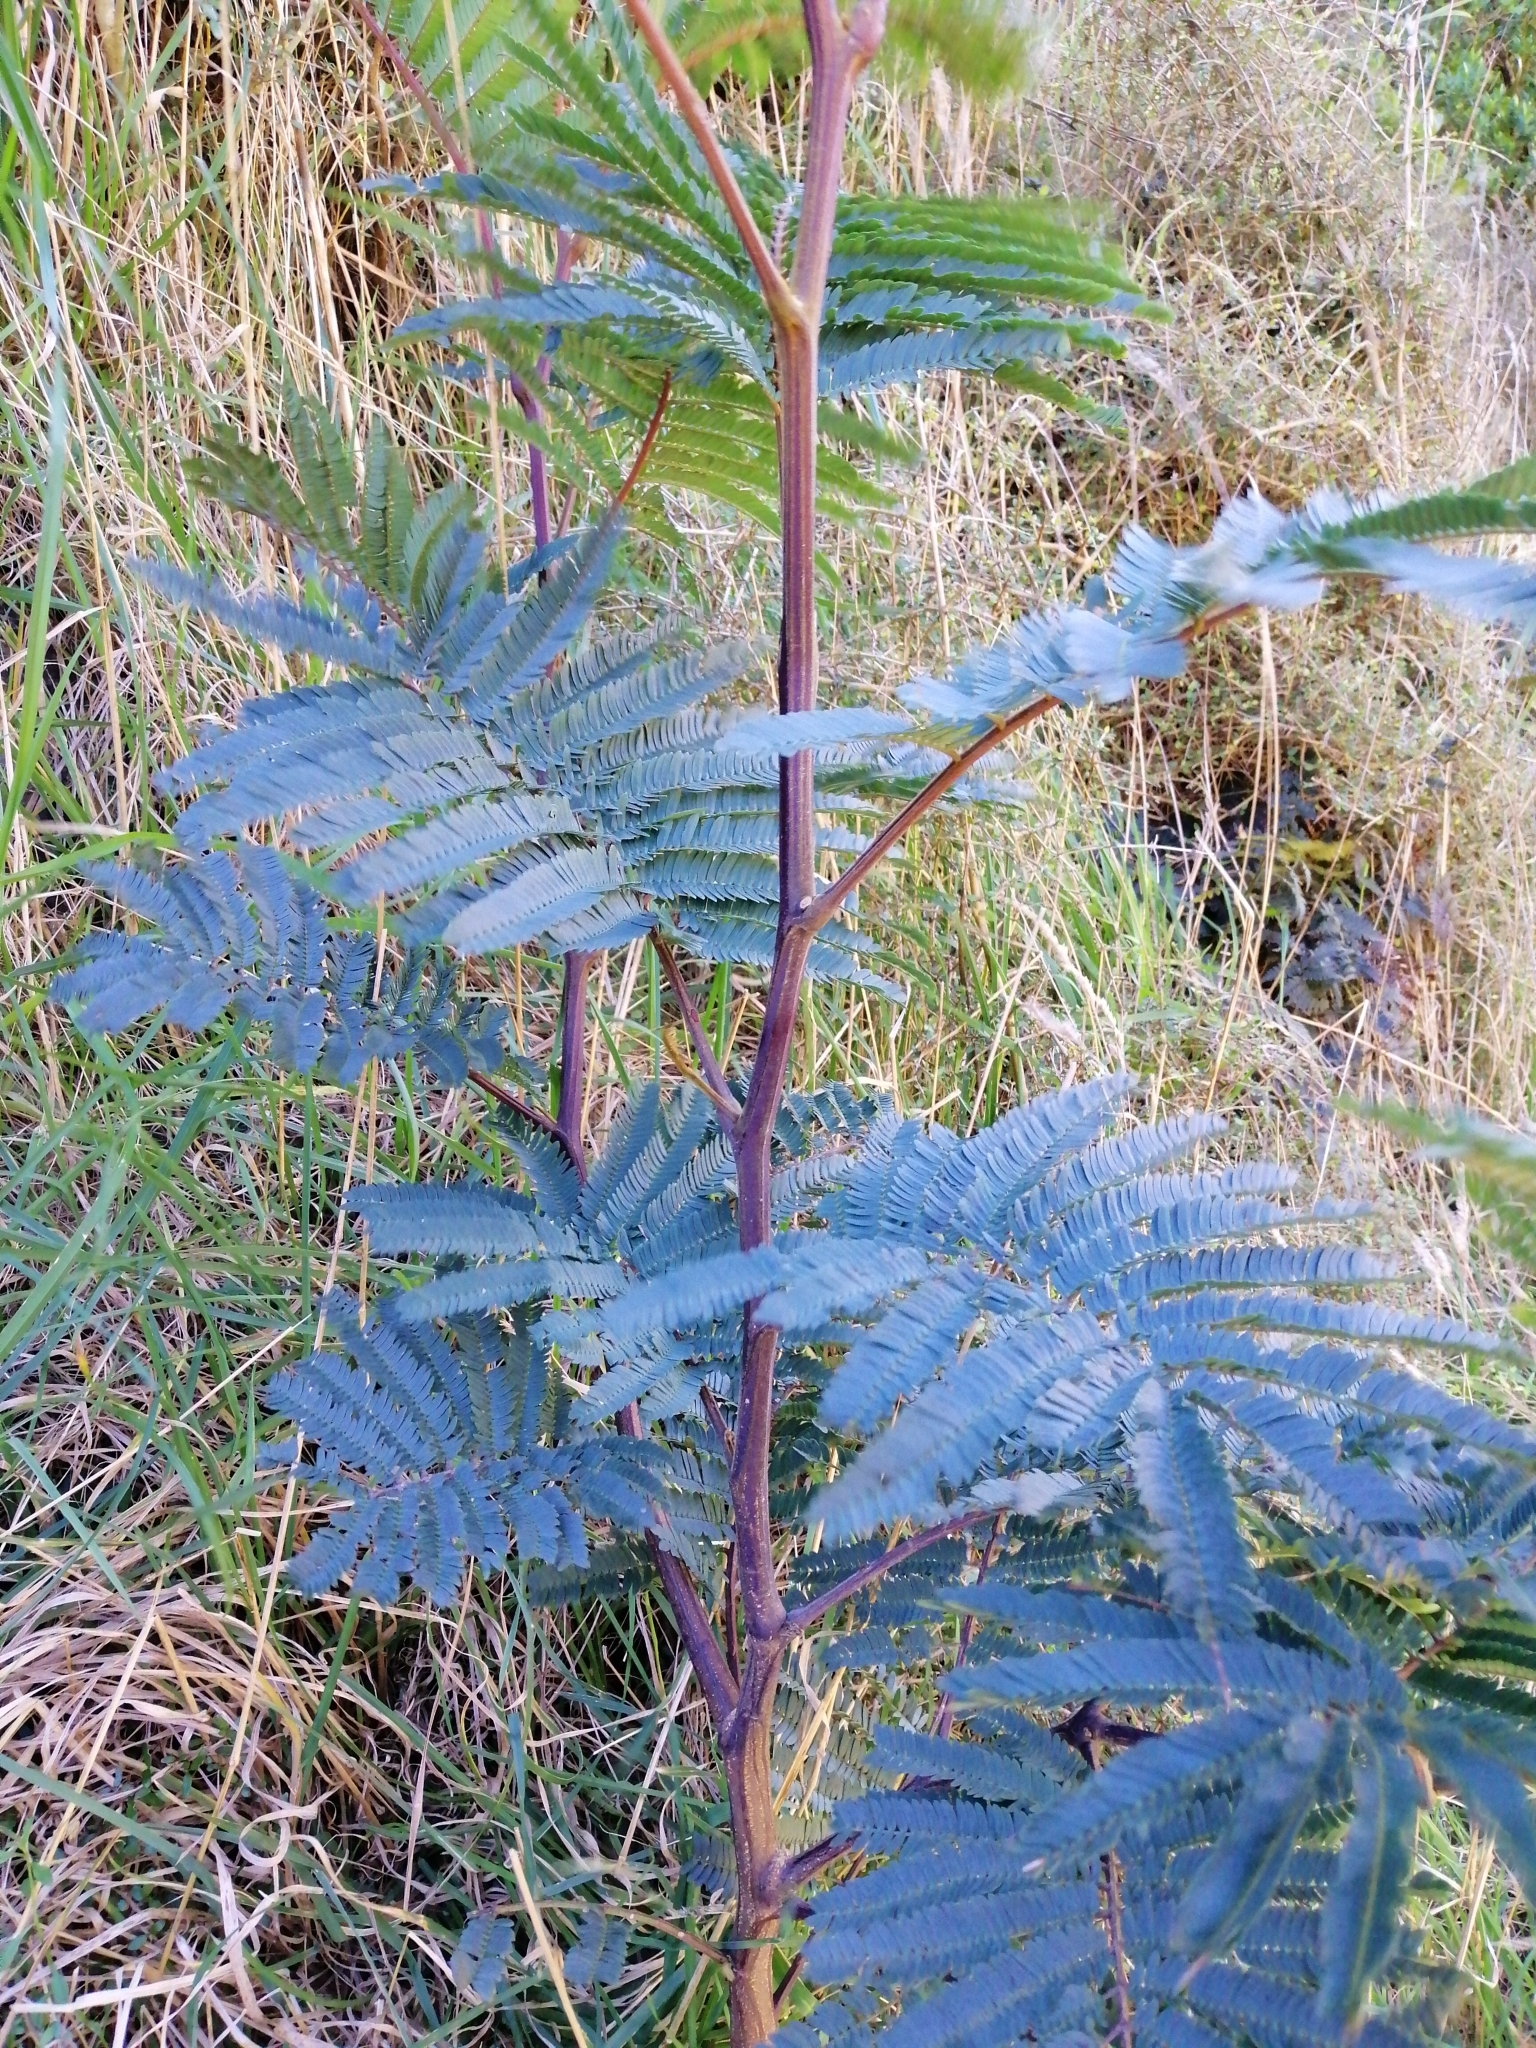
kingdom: Plantae
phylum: Tracheophyta
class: Magnoliopsida
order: Fabales
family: Fabaceae
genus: Paraserianthes
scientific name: Paraserianthes lophantha
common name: Plume albizia
